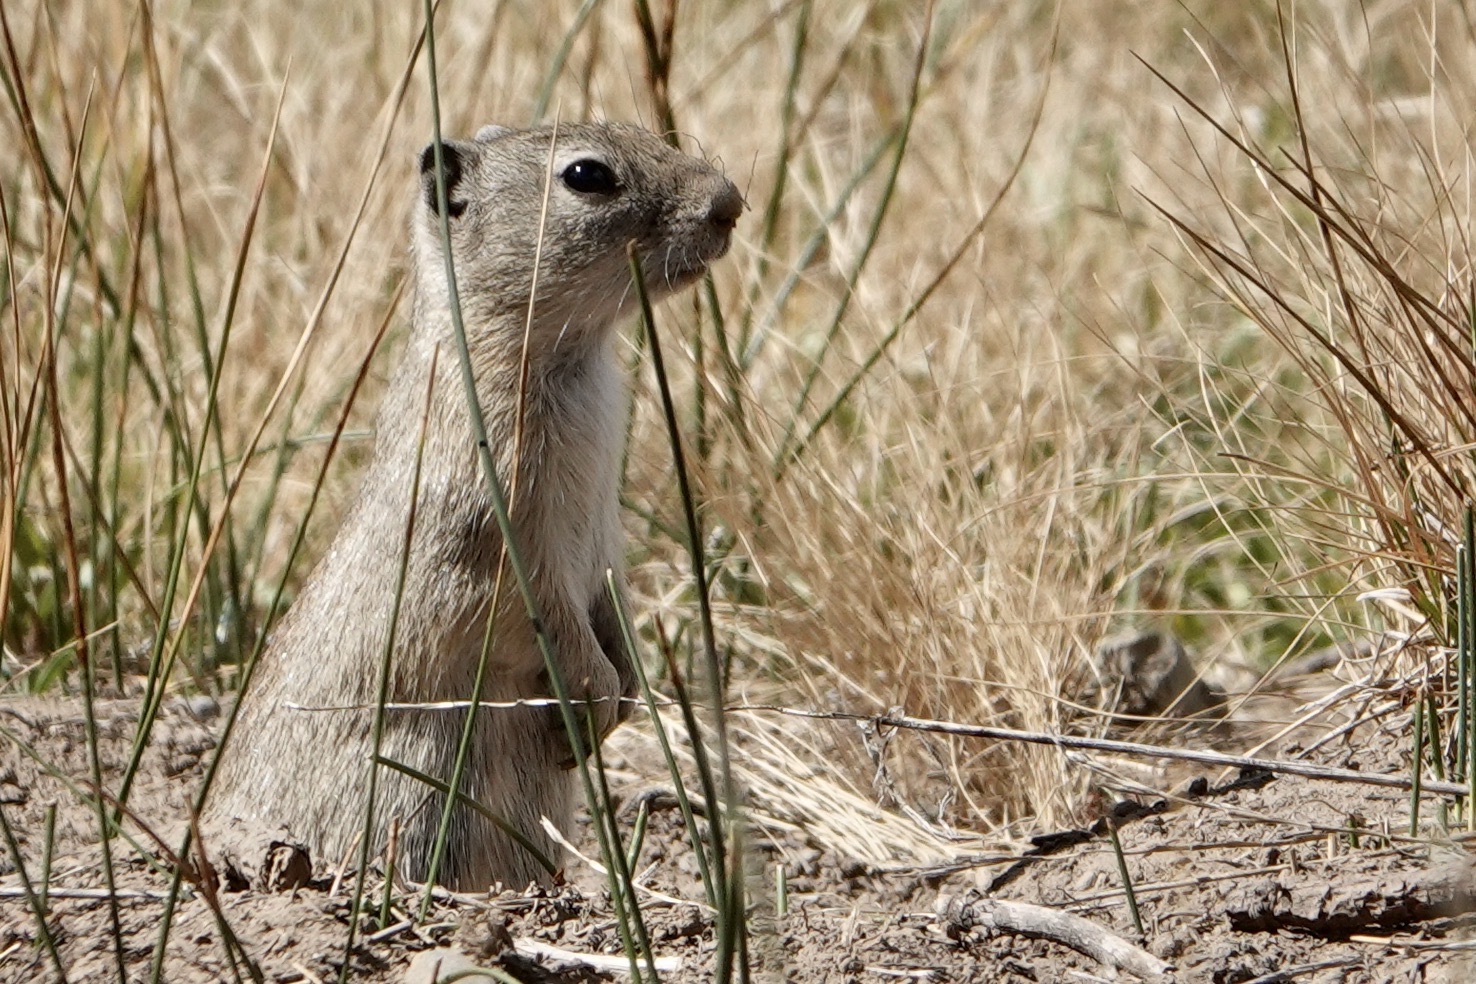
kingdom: Animalia
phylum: Chordata
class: Mammalia
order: Rodentia
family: Sciuridae
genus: Urocitellus
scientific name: Urocitellus beldingi
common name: Belding's ground squirrel
